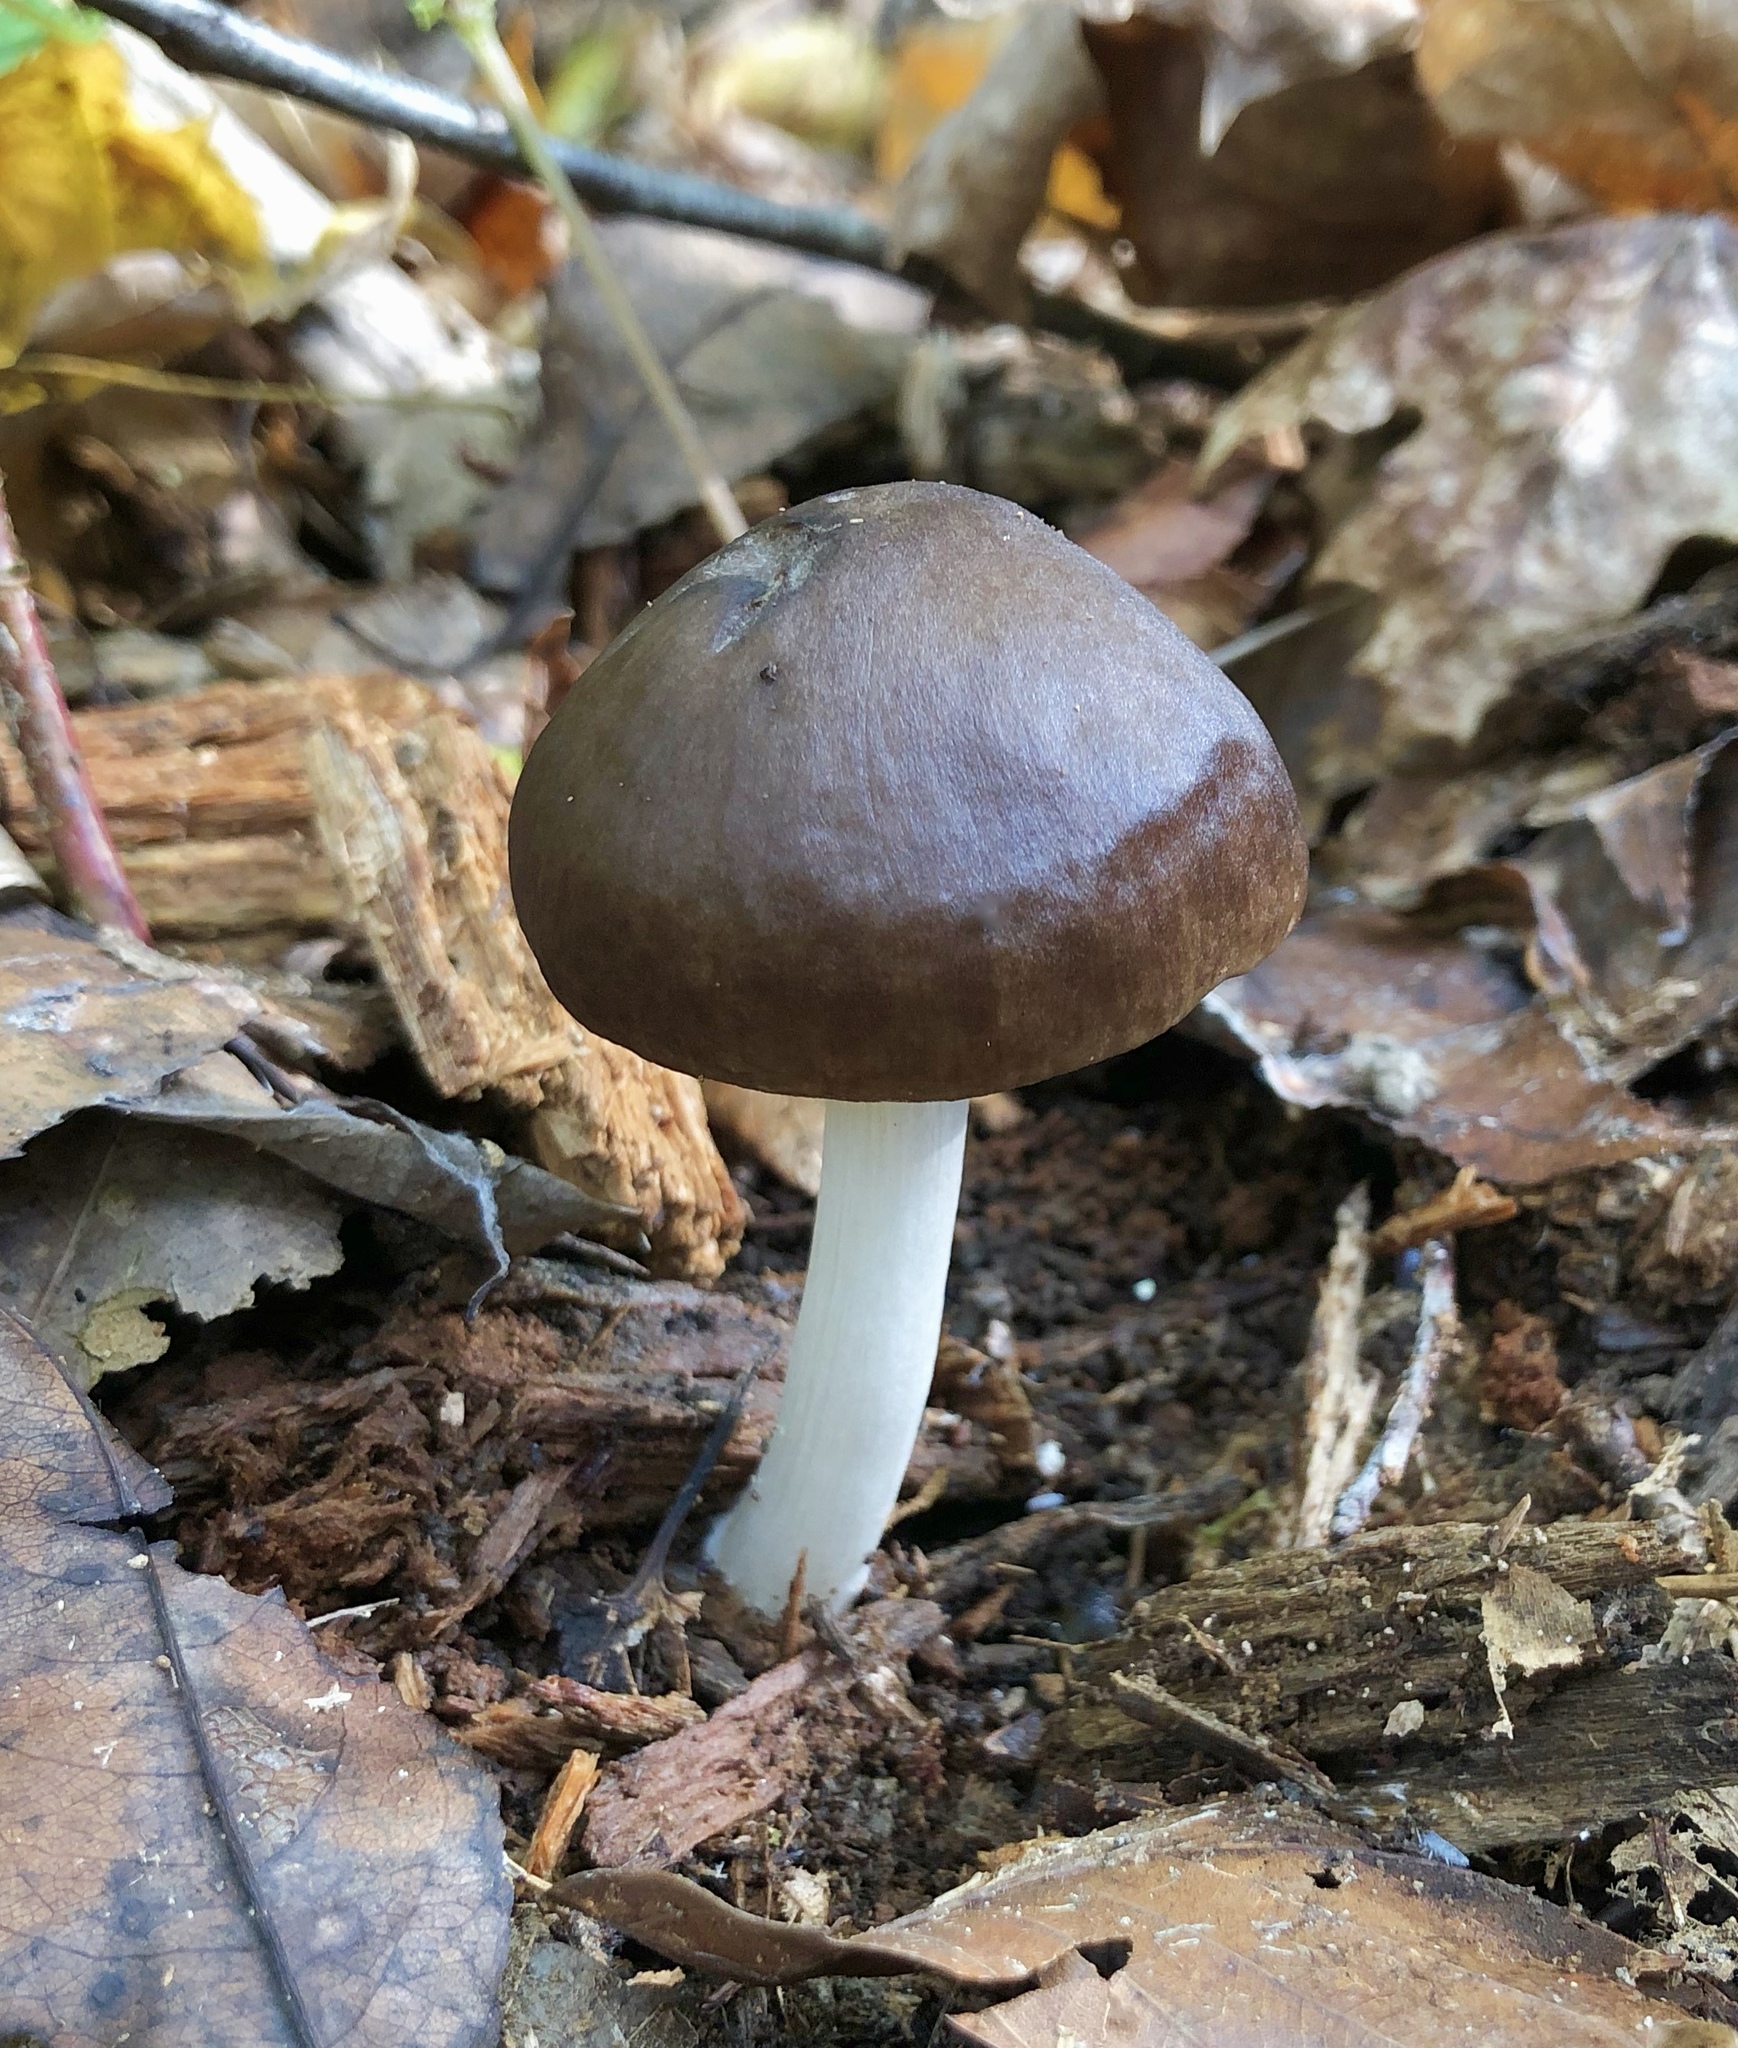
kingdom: Fungi
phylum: Basidiomycota
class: Agaricomycetes
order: Agaricales
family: Pluteaceae
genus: Pluteus
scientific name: Pluteus cervinus
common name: Deer shield
